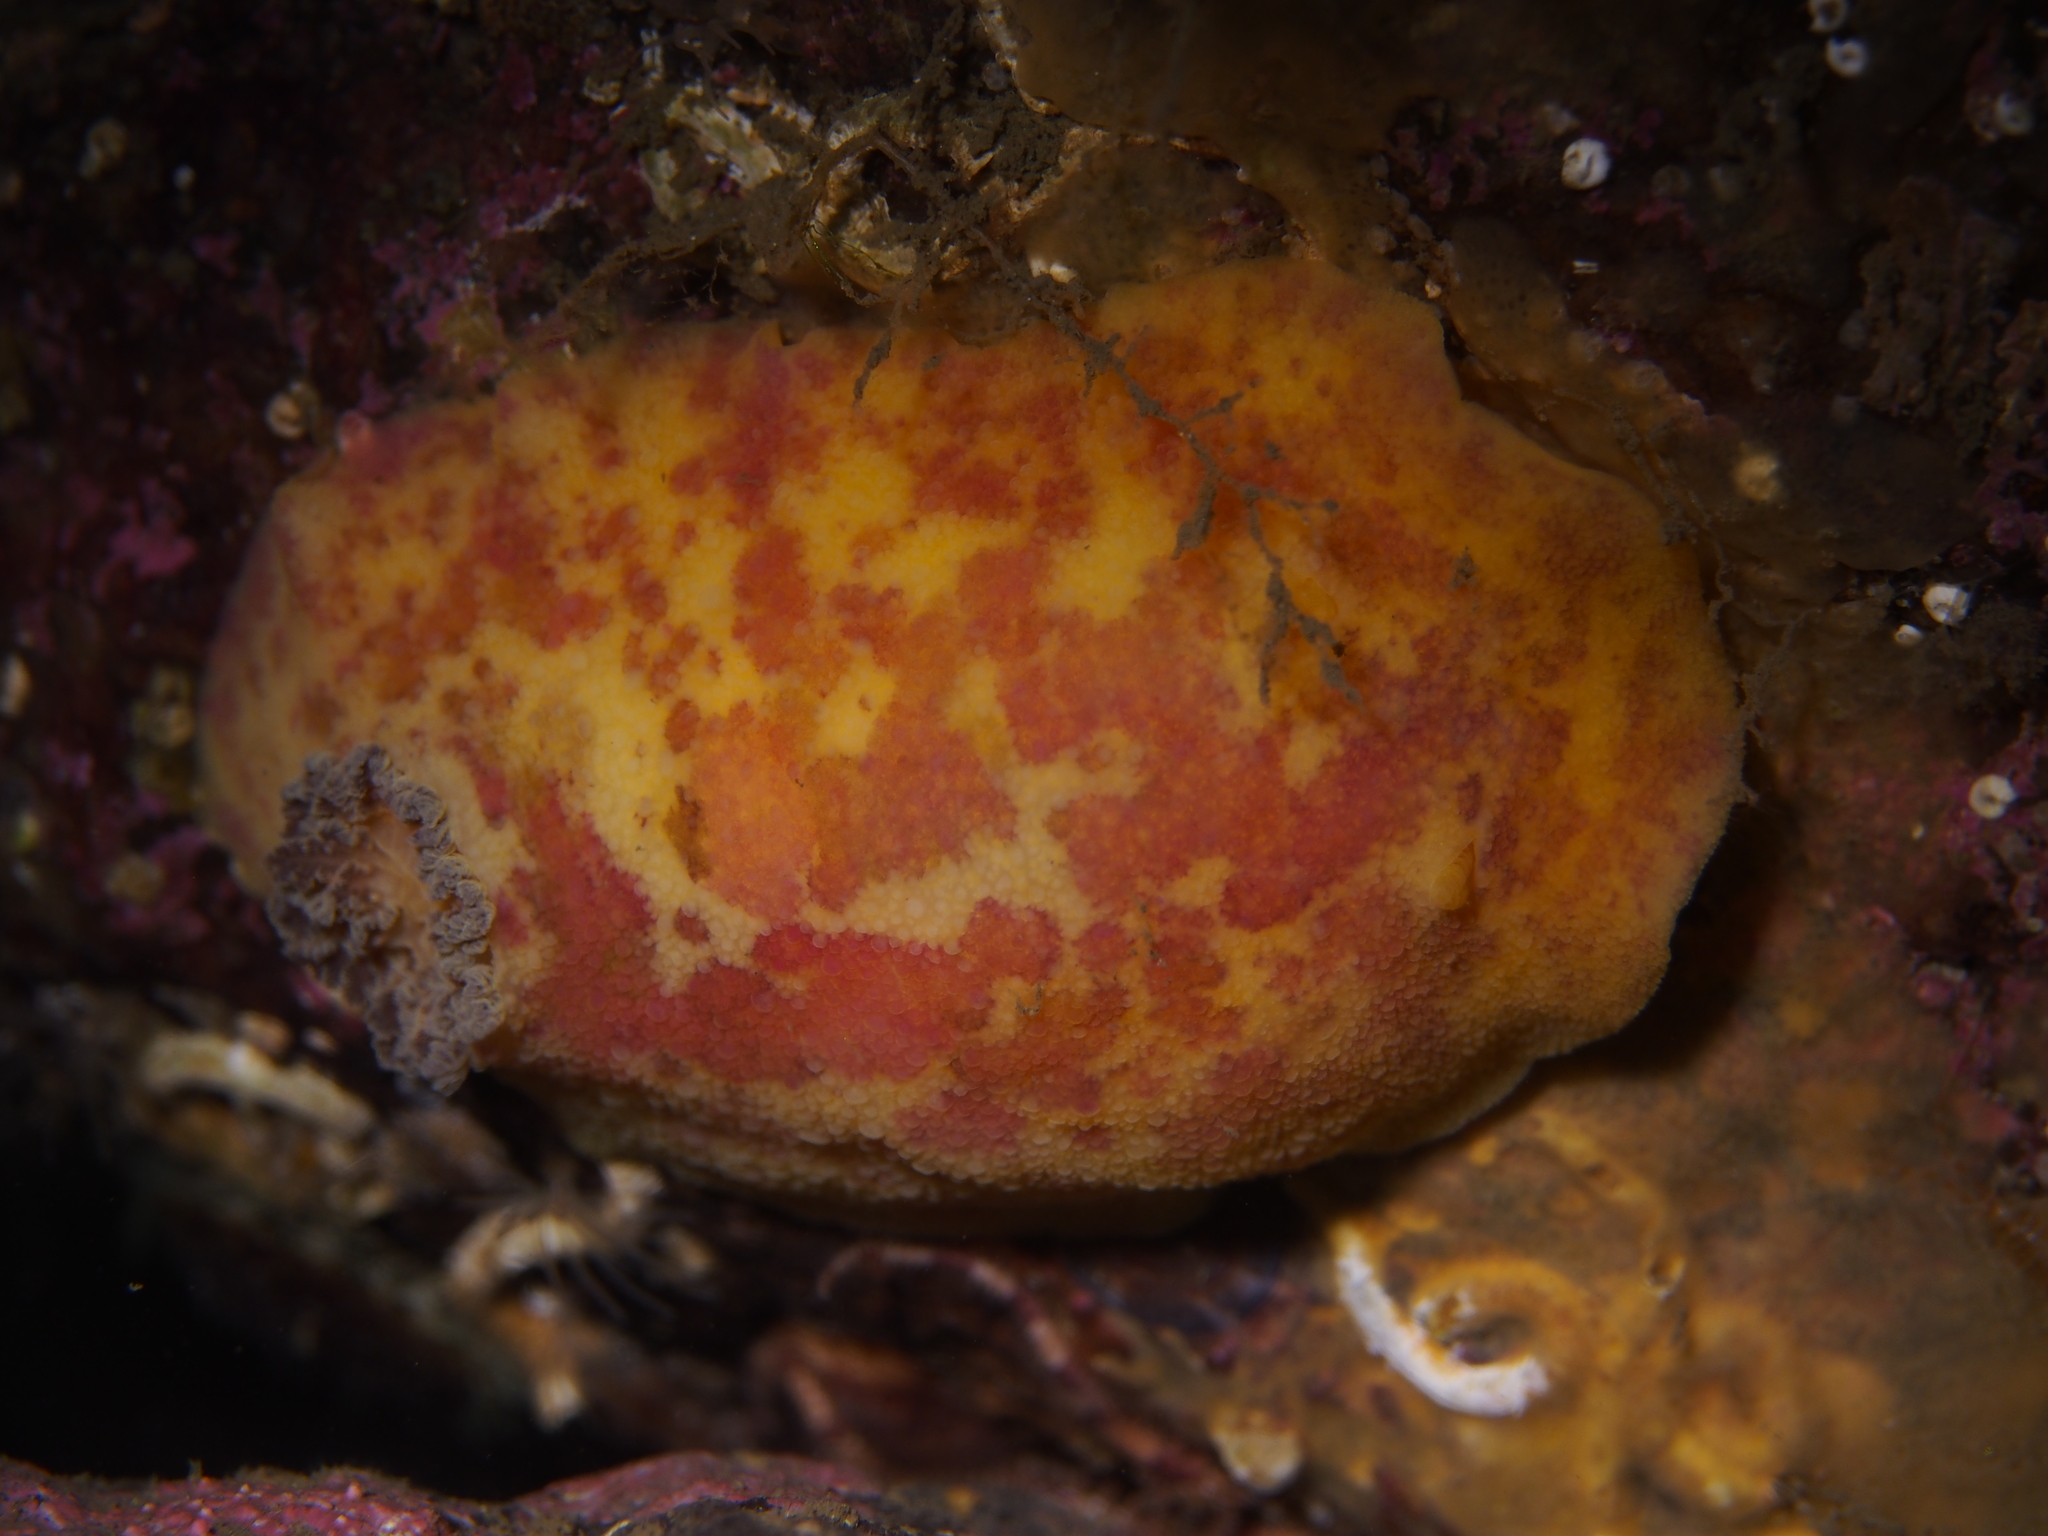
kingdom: Animalia
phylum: Mollusca
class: Gastropoda
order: Nudibranchia
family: Dorididae
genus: Doris
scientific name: Doris pseudoargus
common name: Sea lemon
